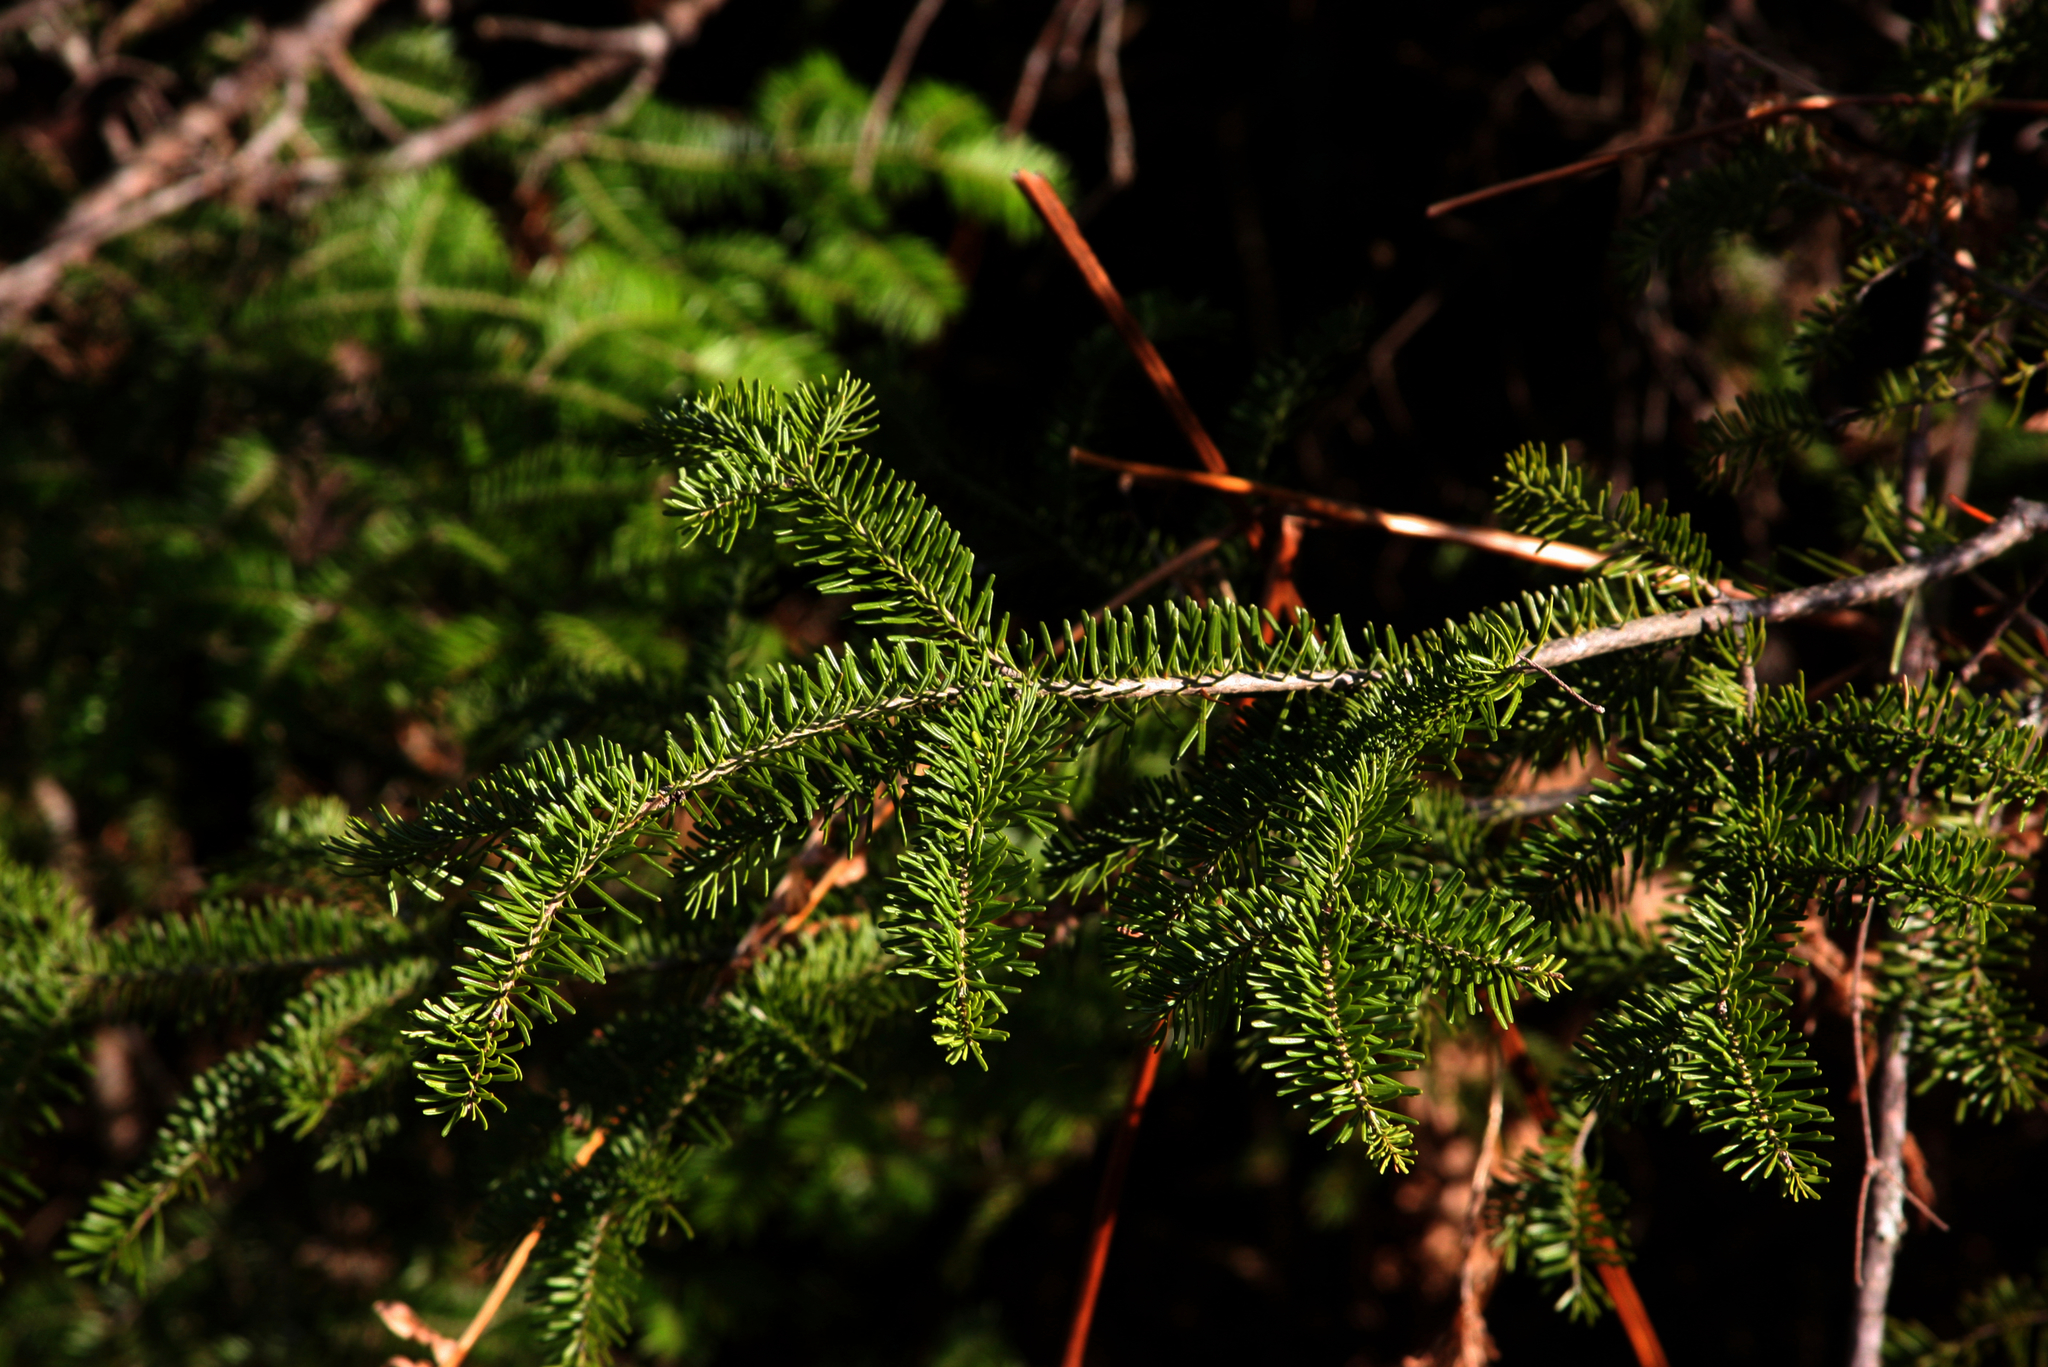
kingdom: Plantae
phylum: Tracheophyta
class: Pinopsida
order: Pinales
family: Pinaceae
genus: Abies
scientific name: Abies balsamea
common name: Balsam fir
